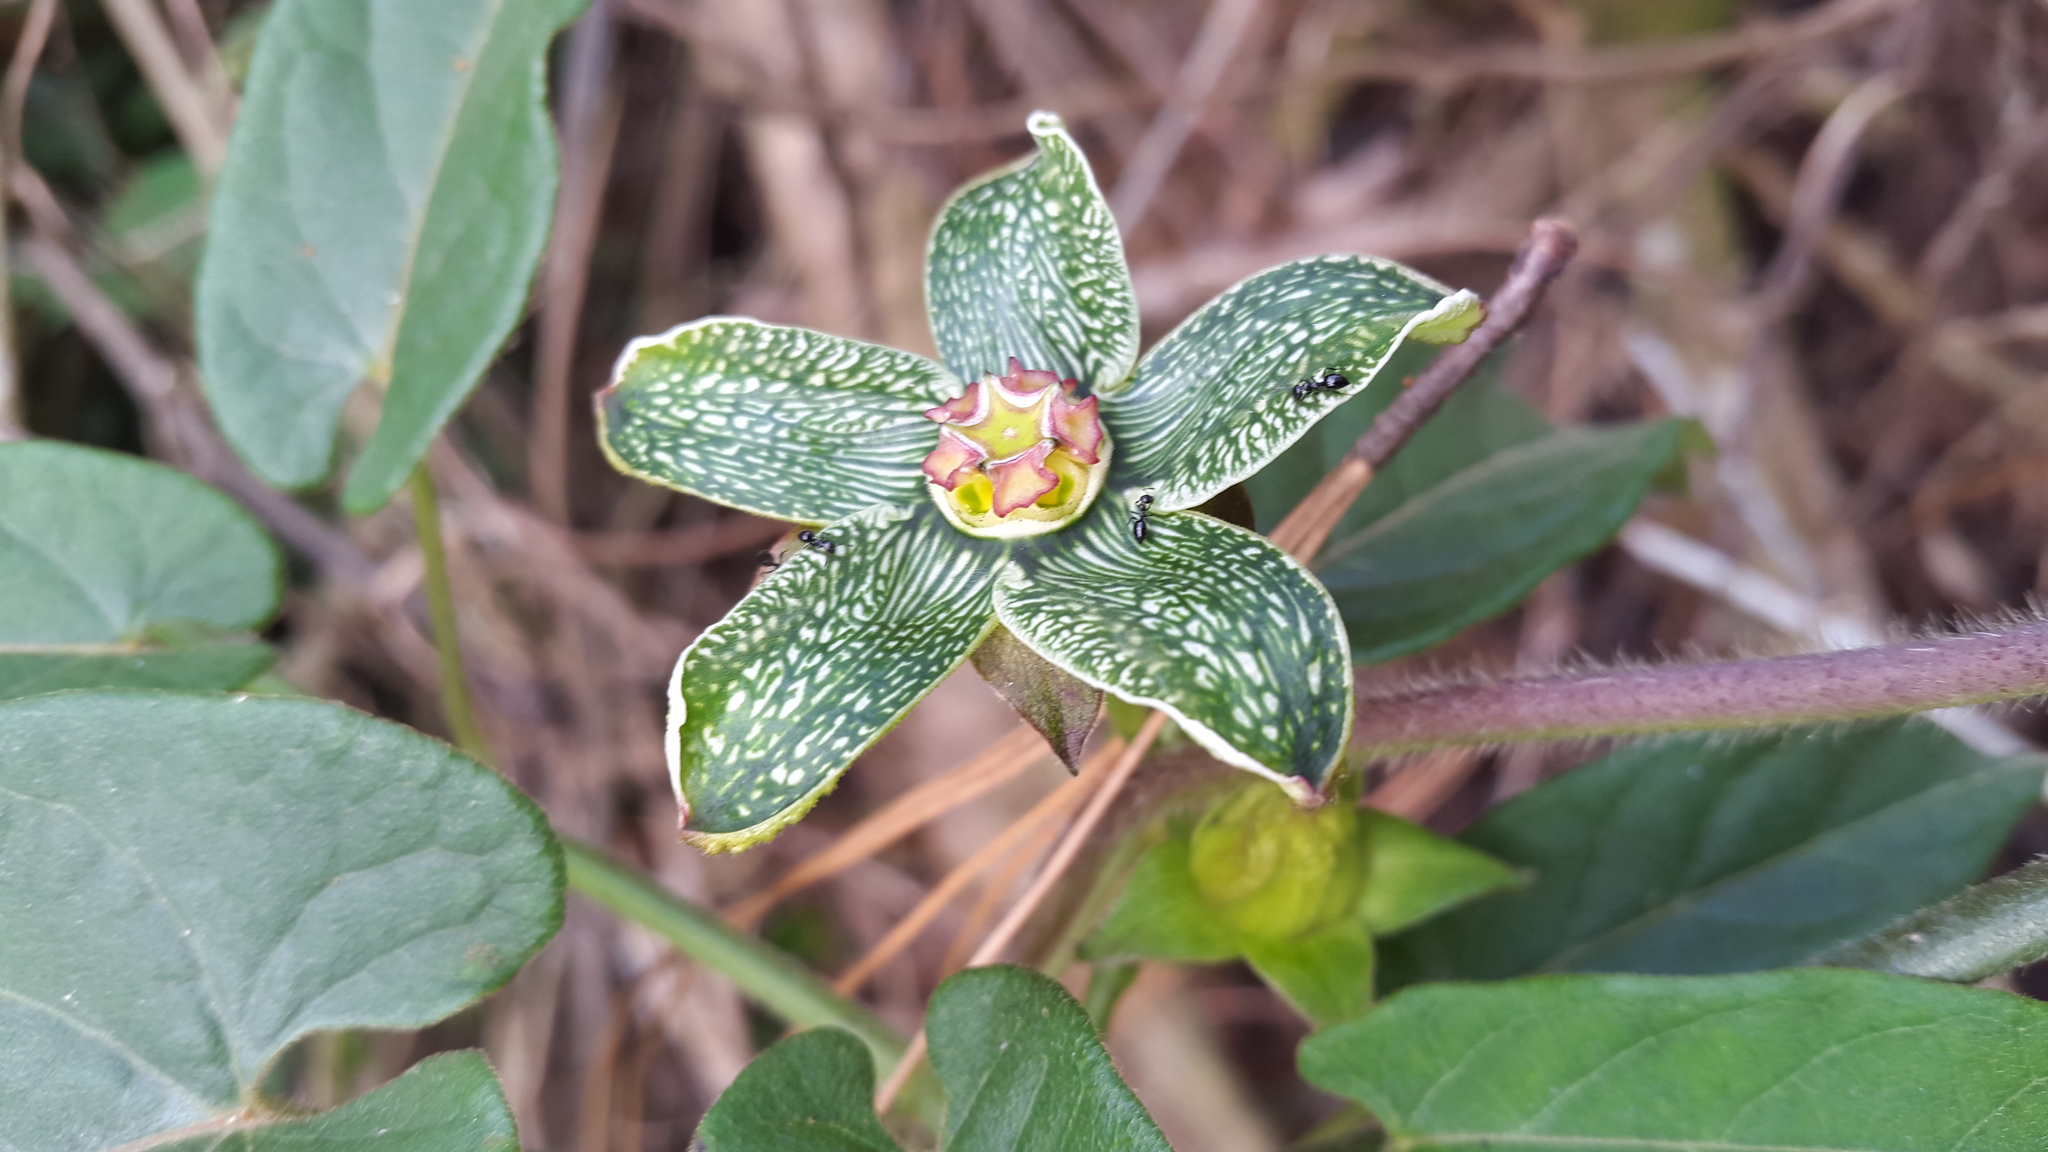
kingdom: Plantae
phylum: Tracheophyta
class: Magnoliopsida
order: Gentianales
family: Apocynaceae
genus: Gonolobus
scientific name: Gonolobus incerianus
